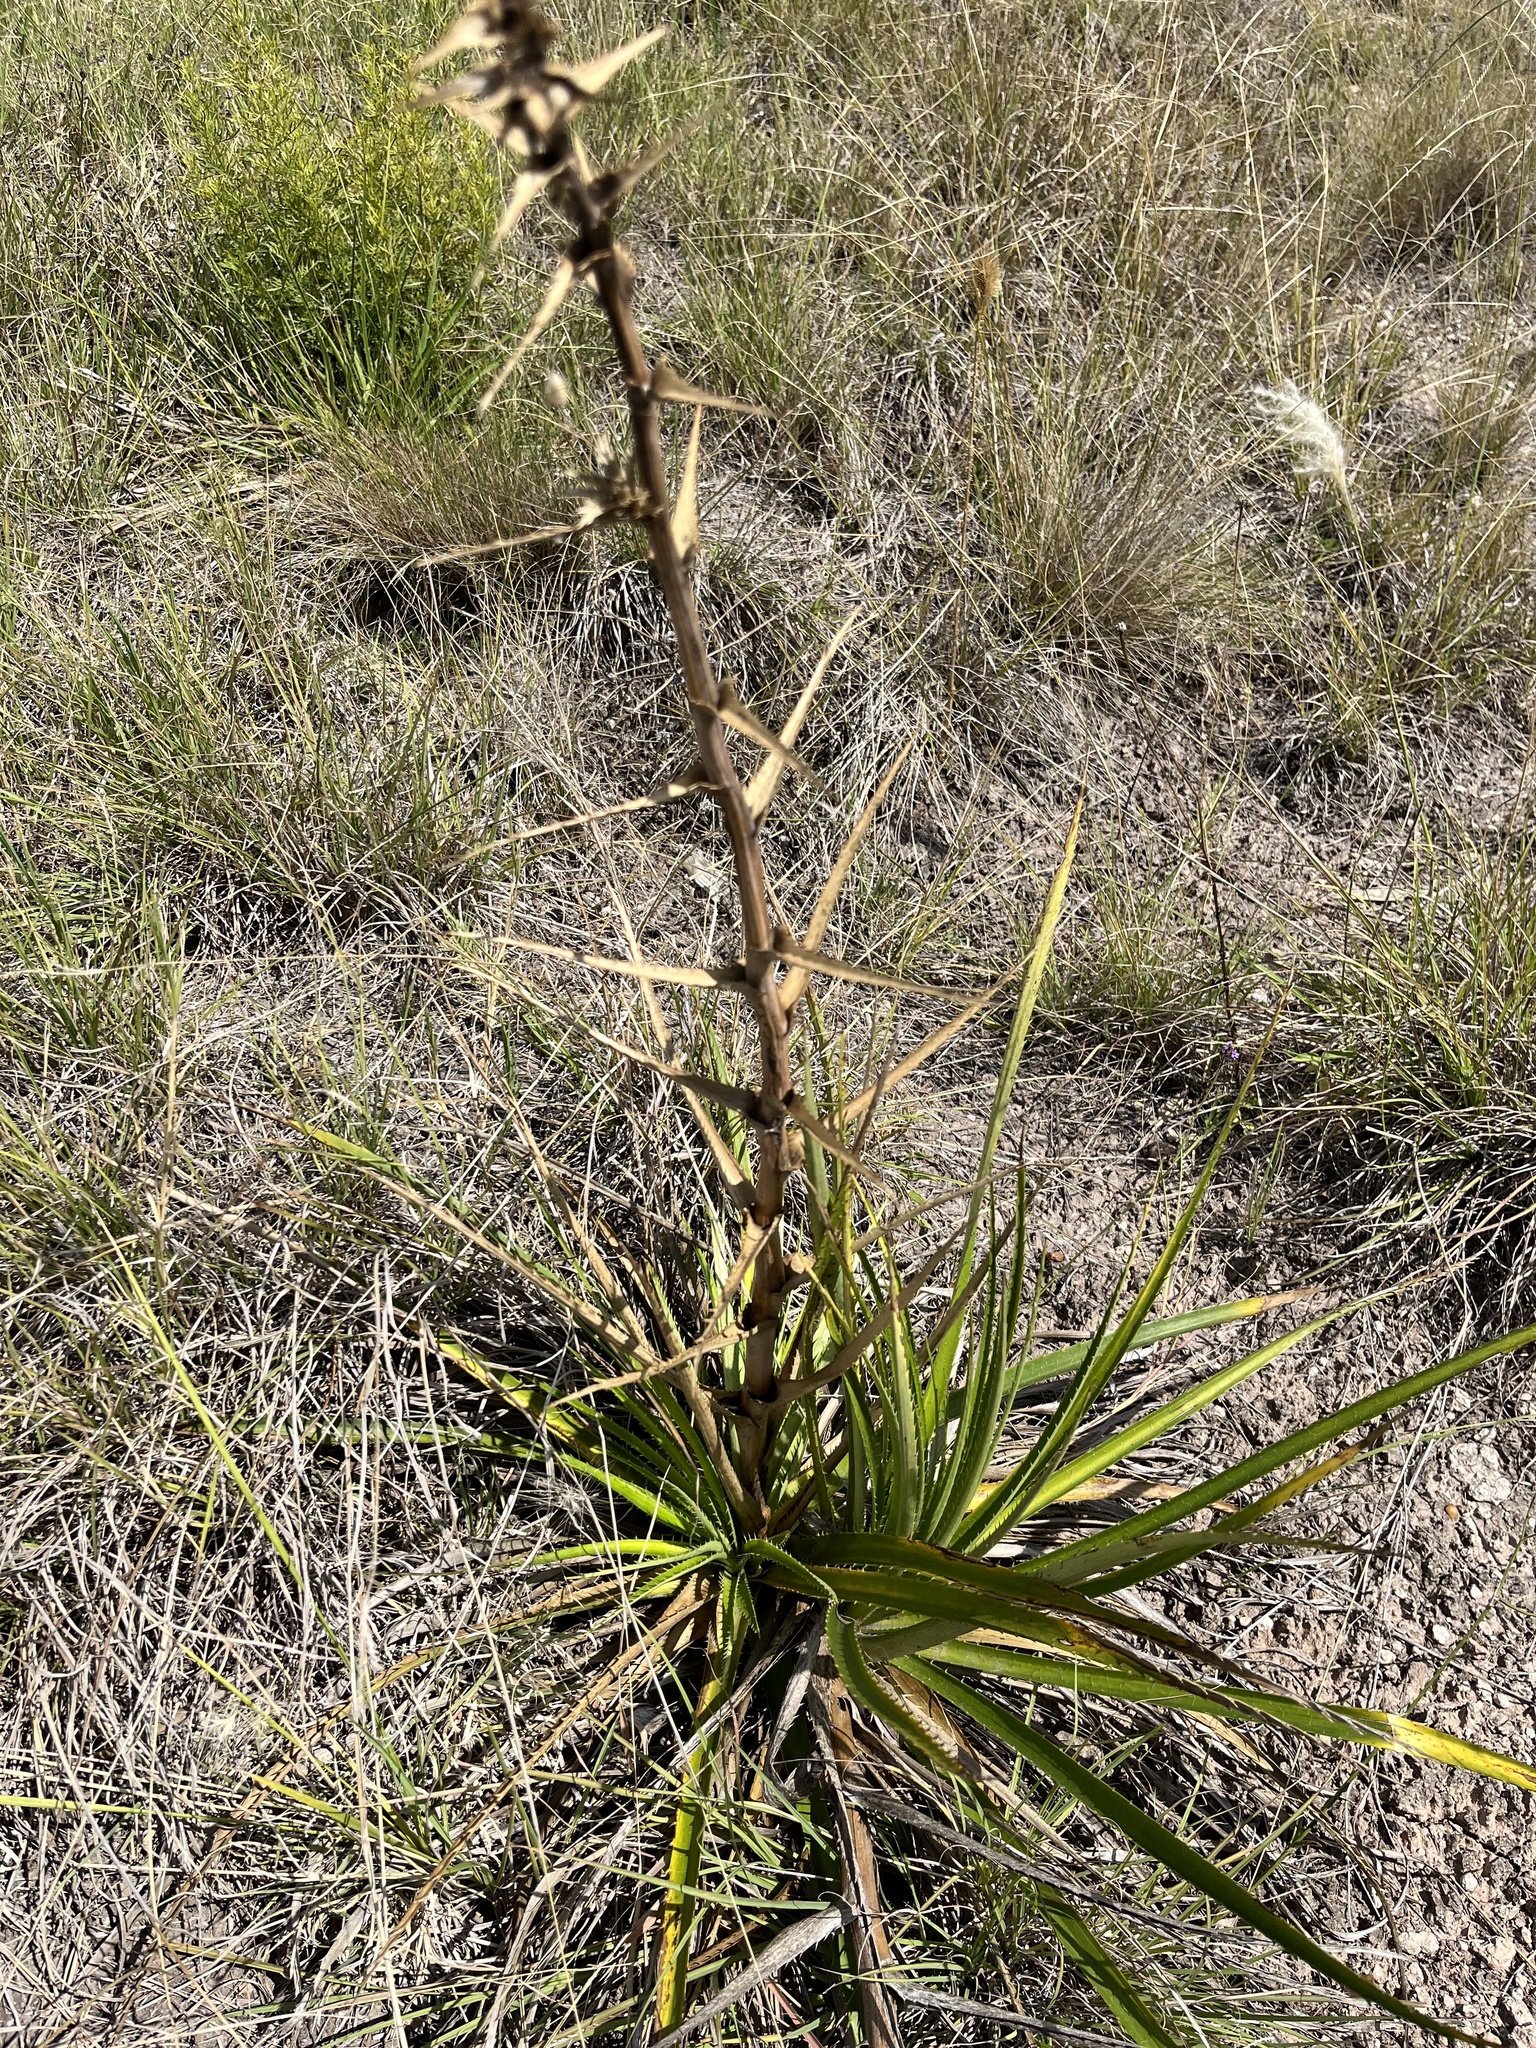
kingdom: Plantae
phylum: Tracheophyta
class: Magnoliopsida
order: Apiales
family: Apiaceae
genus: Eryngium
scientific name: Eryngium horridum
